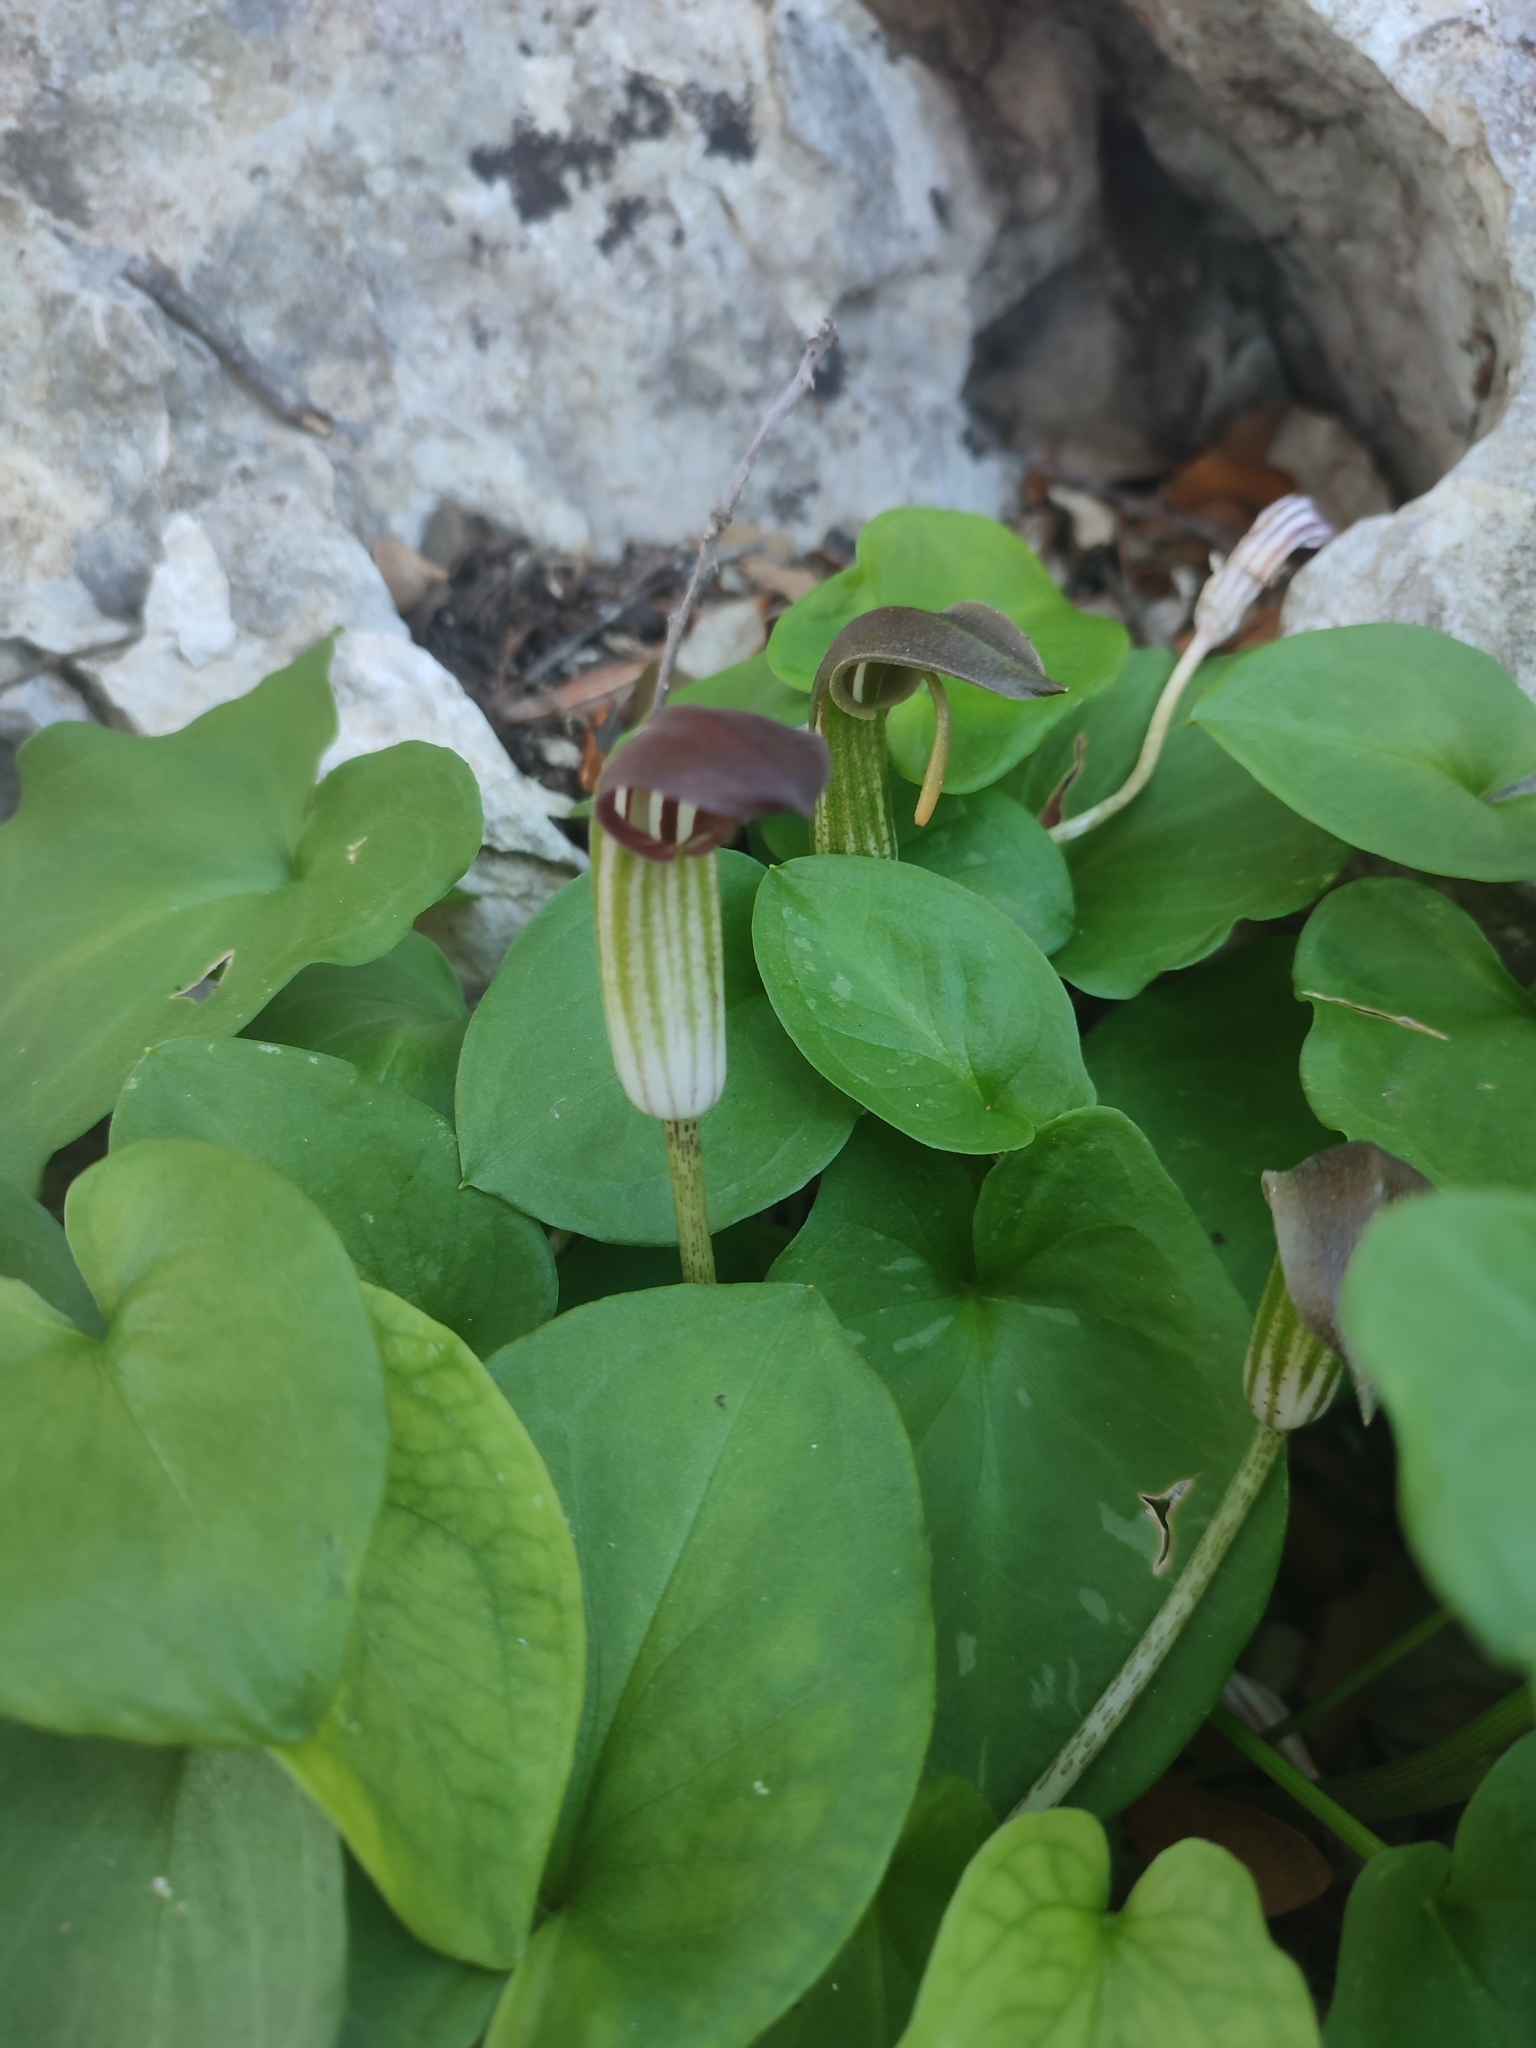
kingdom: Plantae
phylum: Tracheophyta
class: Liliopsida
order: Alismatales
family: Araceae
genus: Arisarum
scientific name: Arisarum vulgare
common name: Common arisarum
